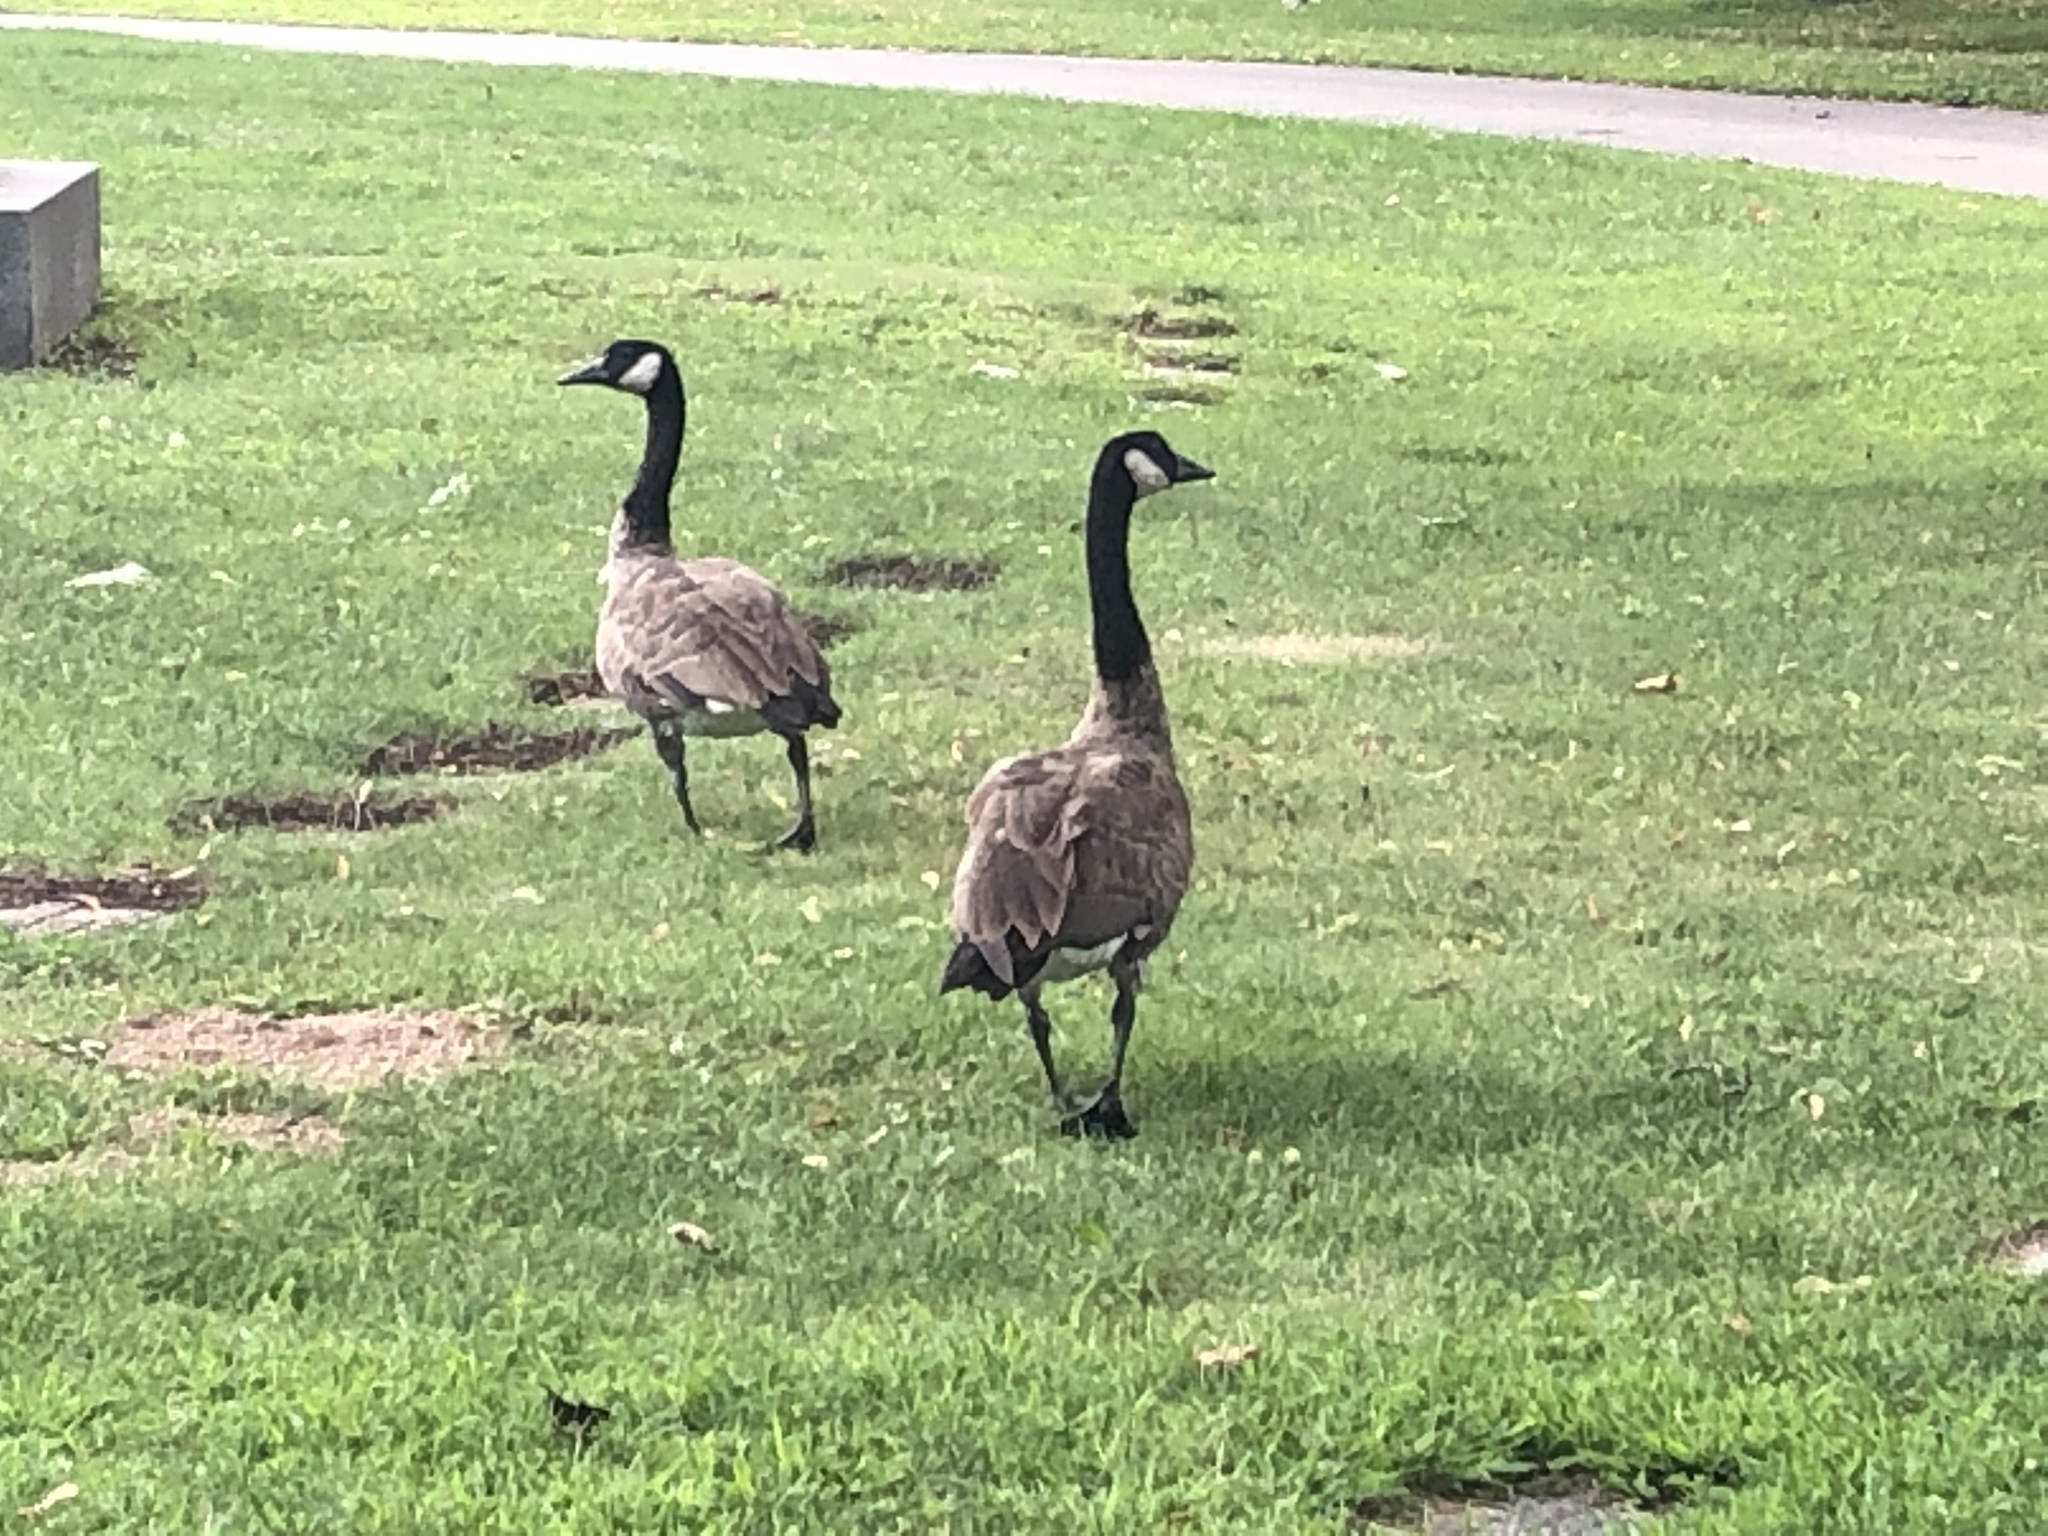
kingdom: Animalia
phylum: Chordata
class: Aves
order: Anseriformes
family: Anatidae
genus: Branta
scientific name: Branta canadensis
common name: Canada goose
